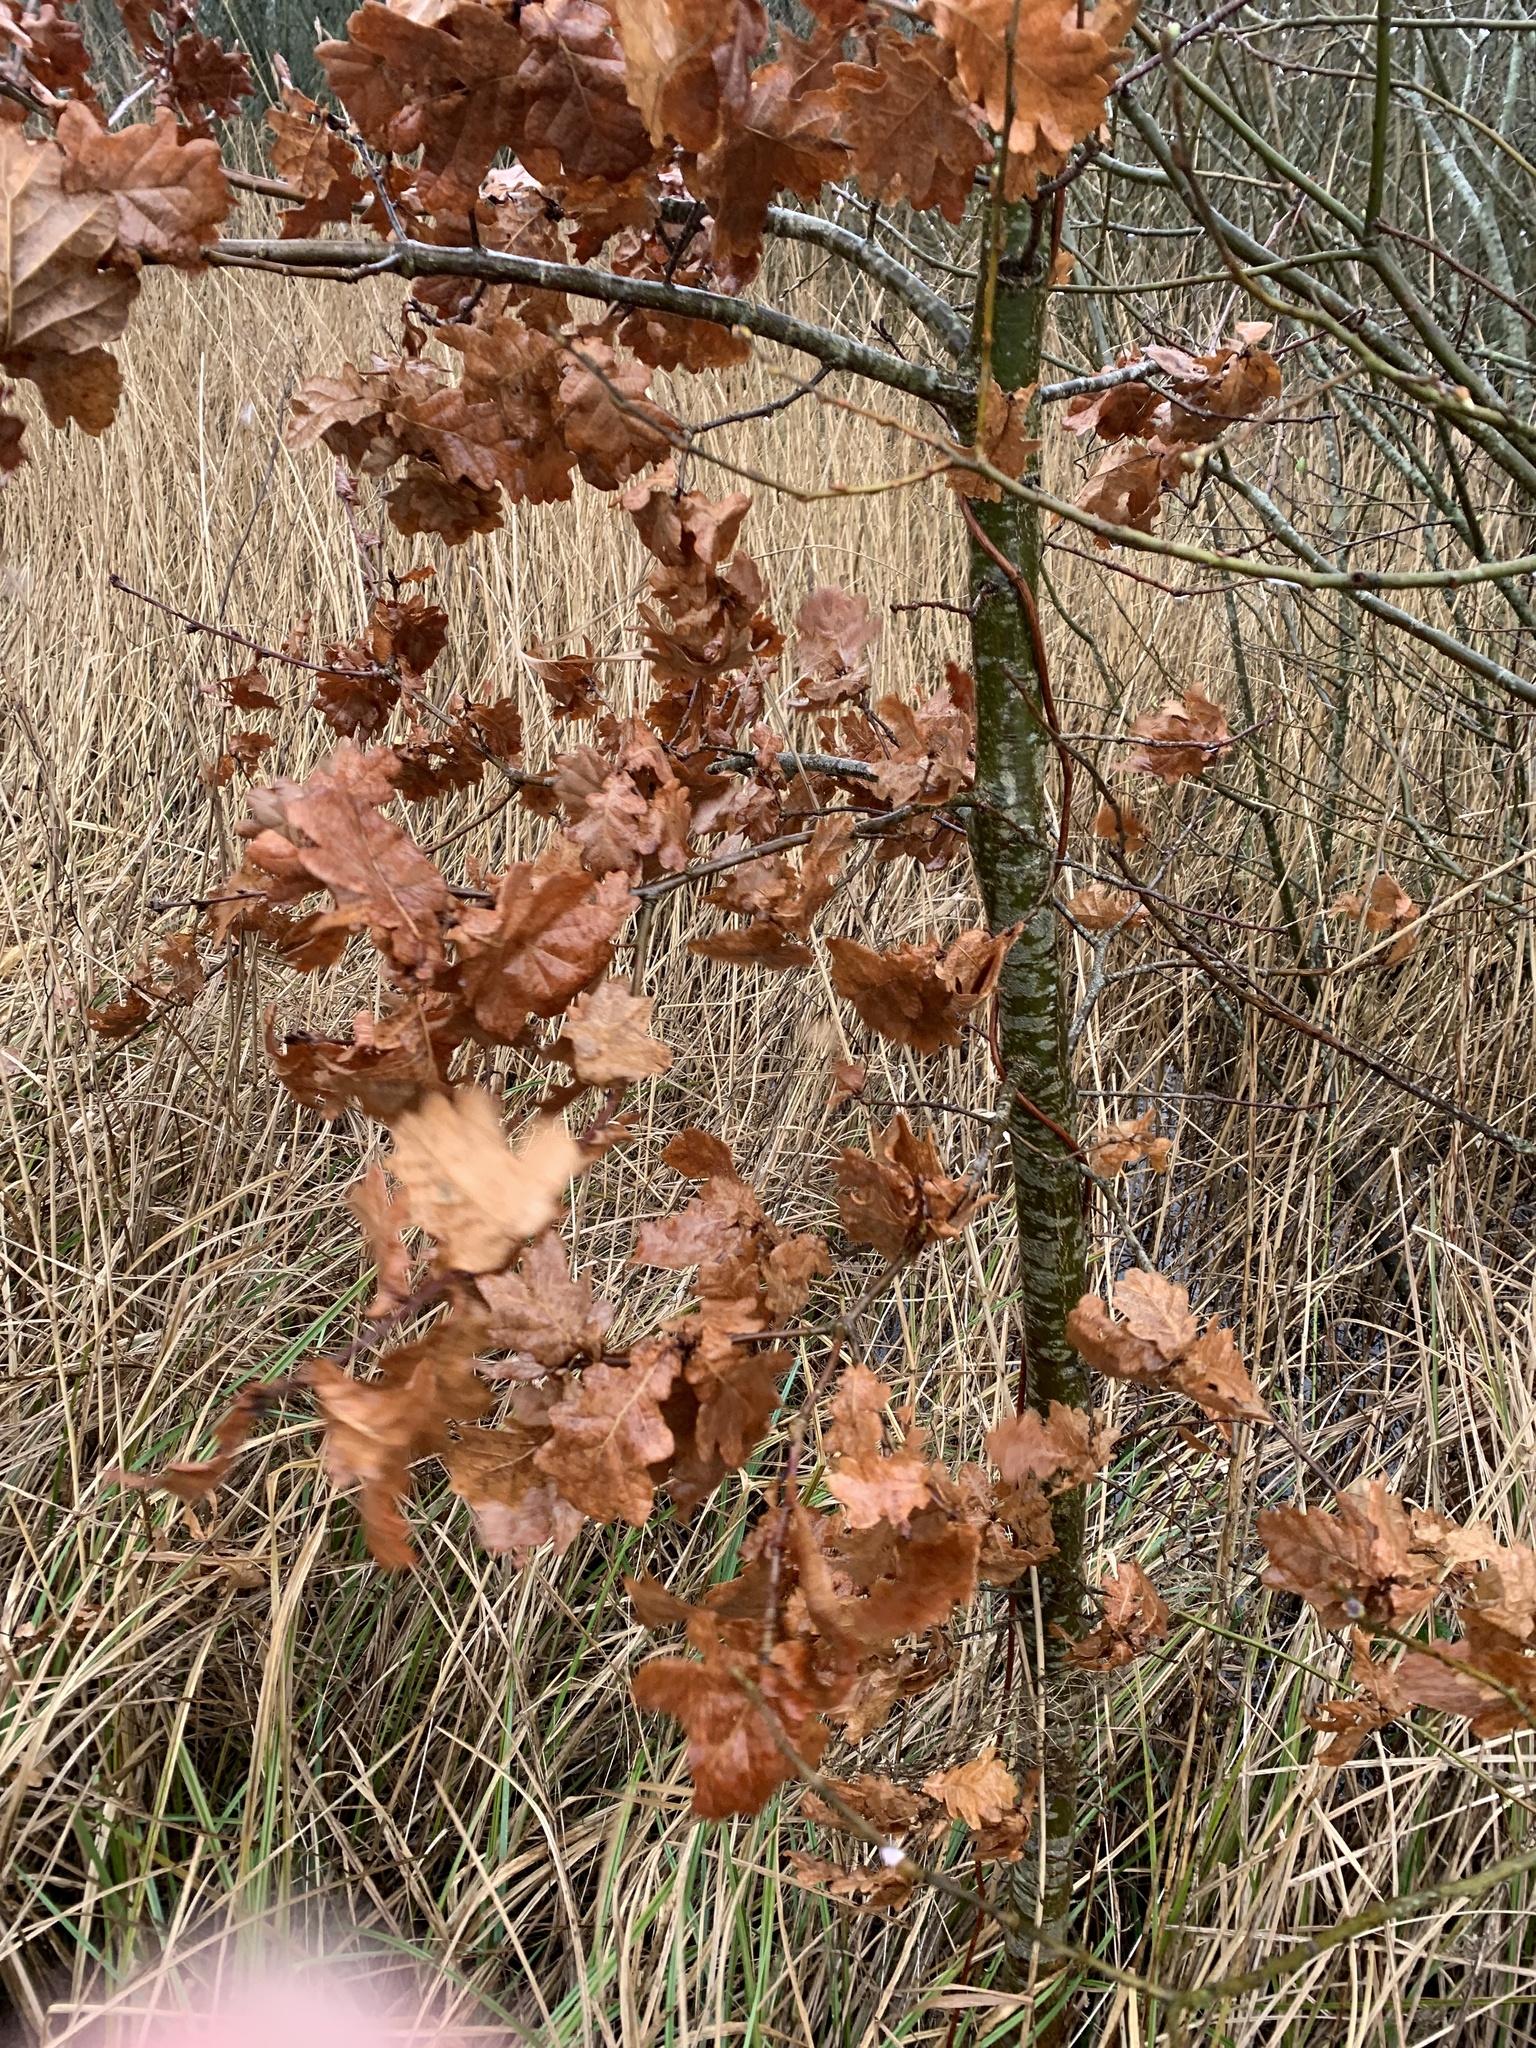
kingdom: Plantae
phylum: Tracheophyta
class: Magnoliopsida
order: Fagales
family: Fagaceae
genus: Quercus
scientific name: Quercus robur
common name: Pedunculate oak
